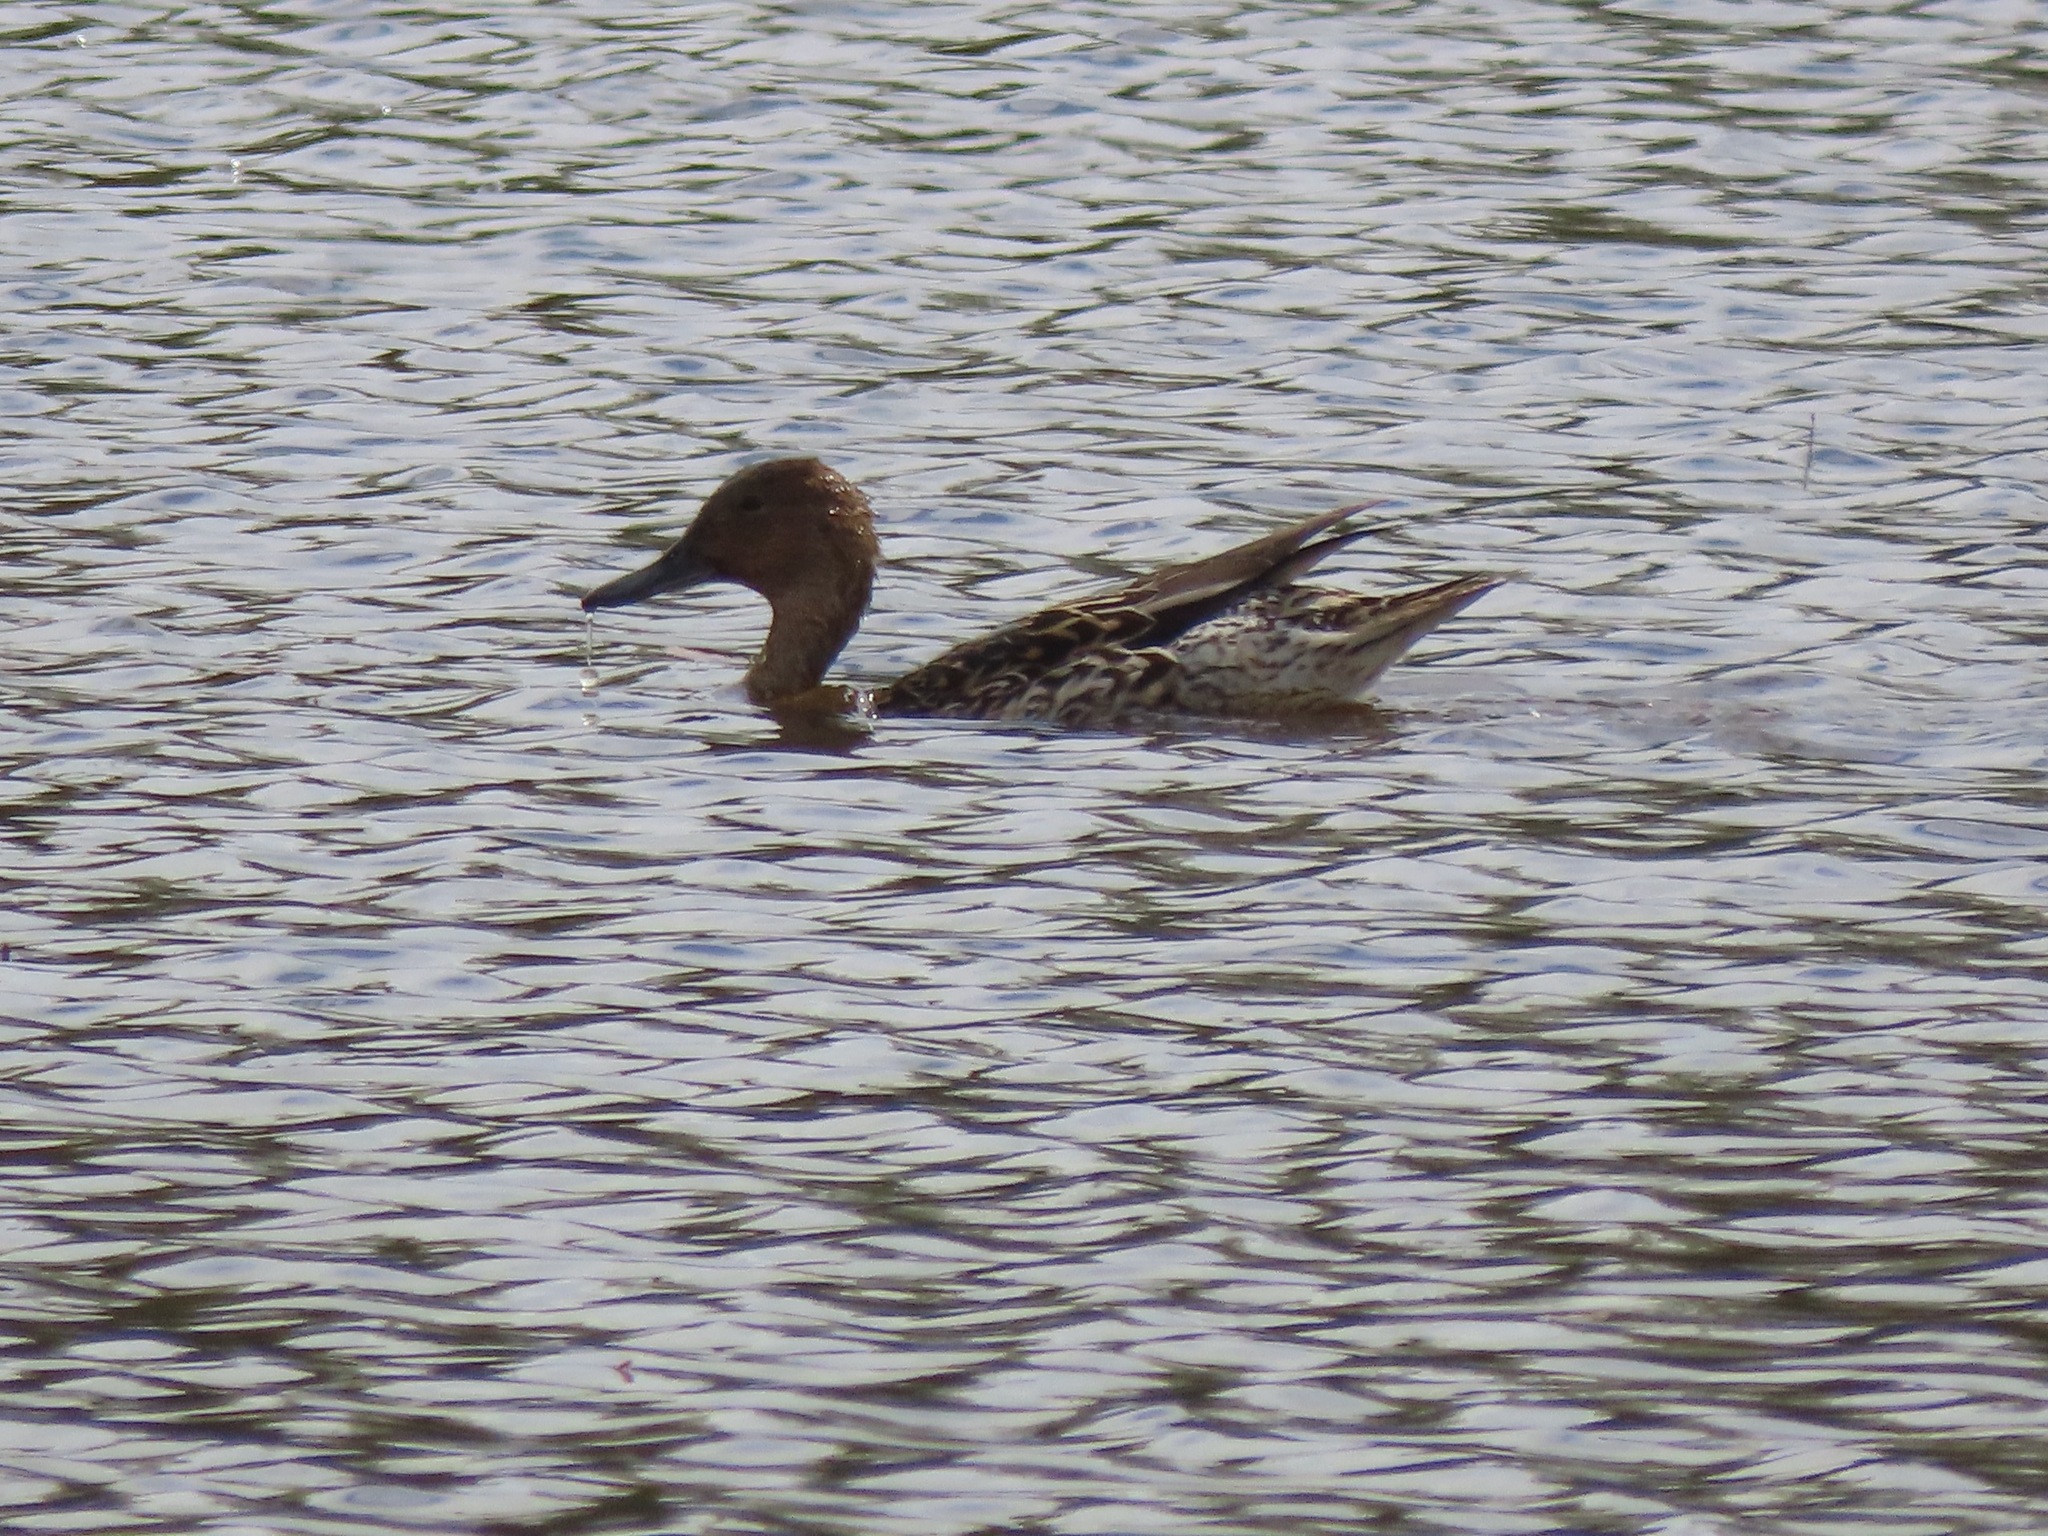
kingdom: Animalia
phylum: Chordata
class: Aves
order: Anseriformes
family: Anatidae
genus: Anas
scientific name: Anas acuta
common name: Northern pintail
